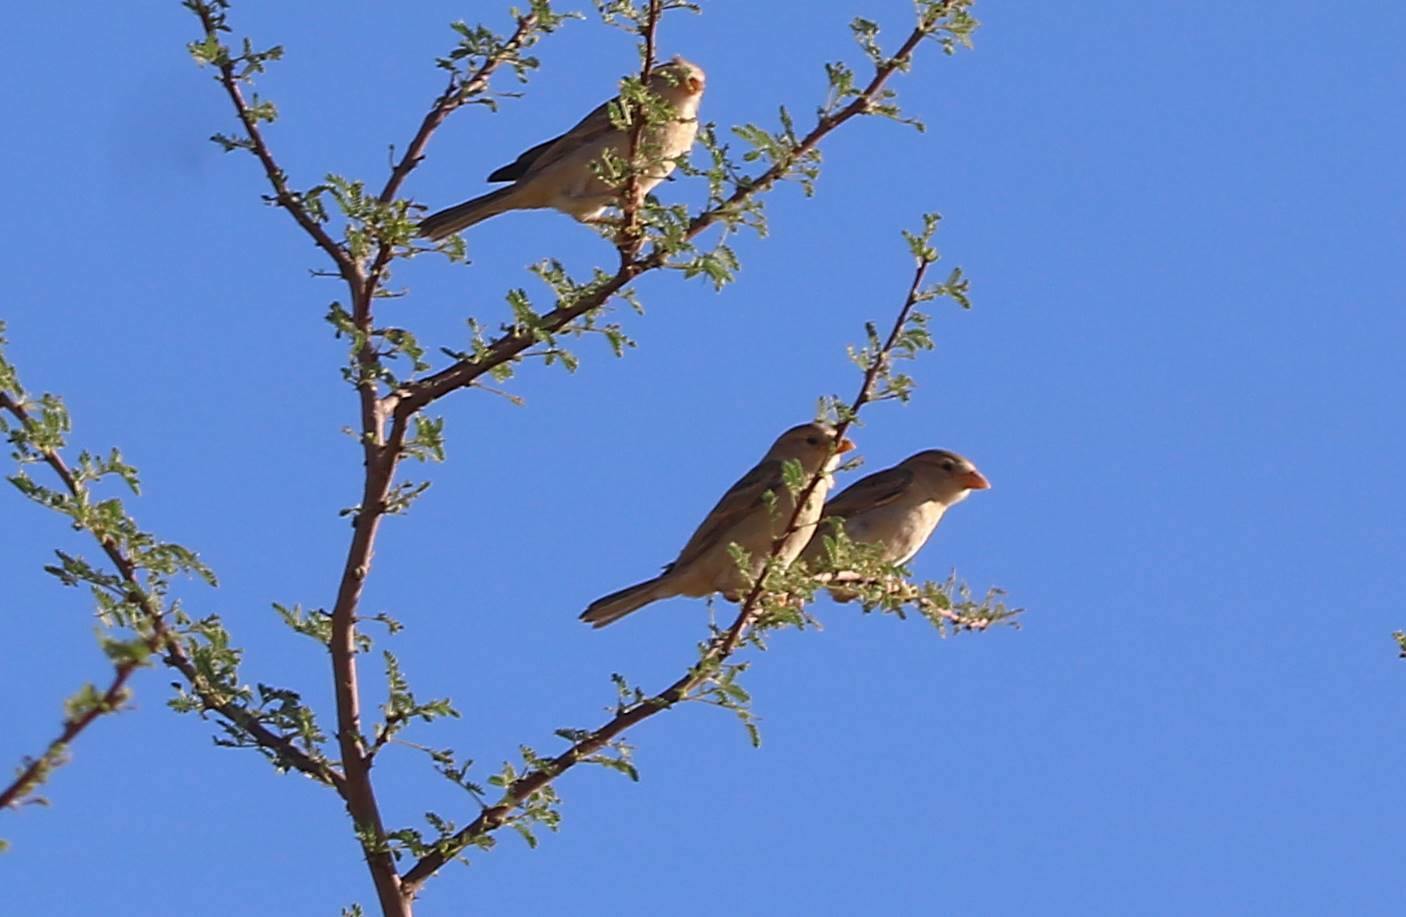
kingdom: Animalia
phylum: Chordata
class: Aves
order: Passeriformes
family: Passeridae
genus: Passer
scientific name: Passer simplex
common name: Desert sparrow
